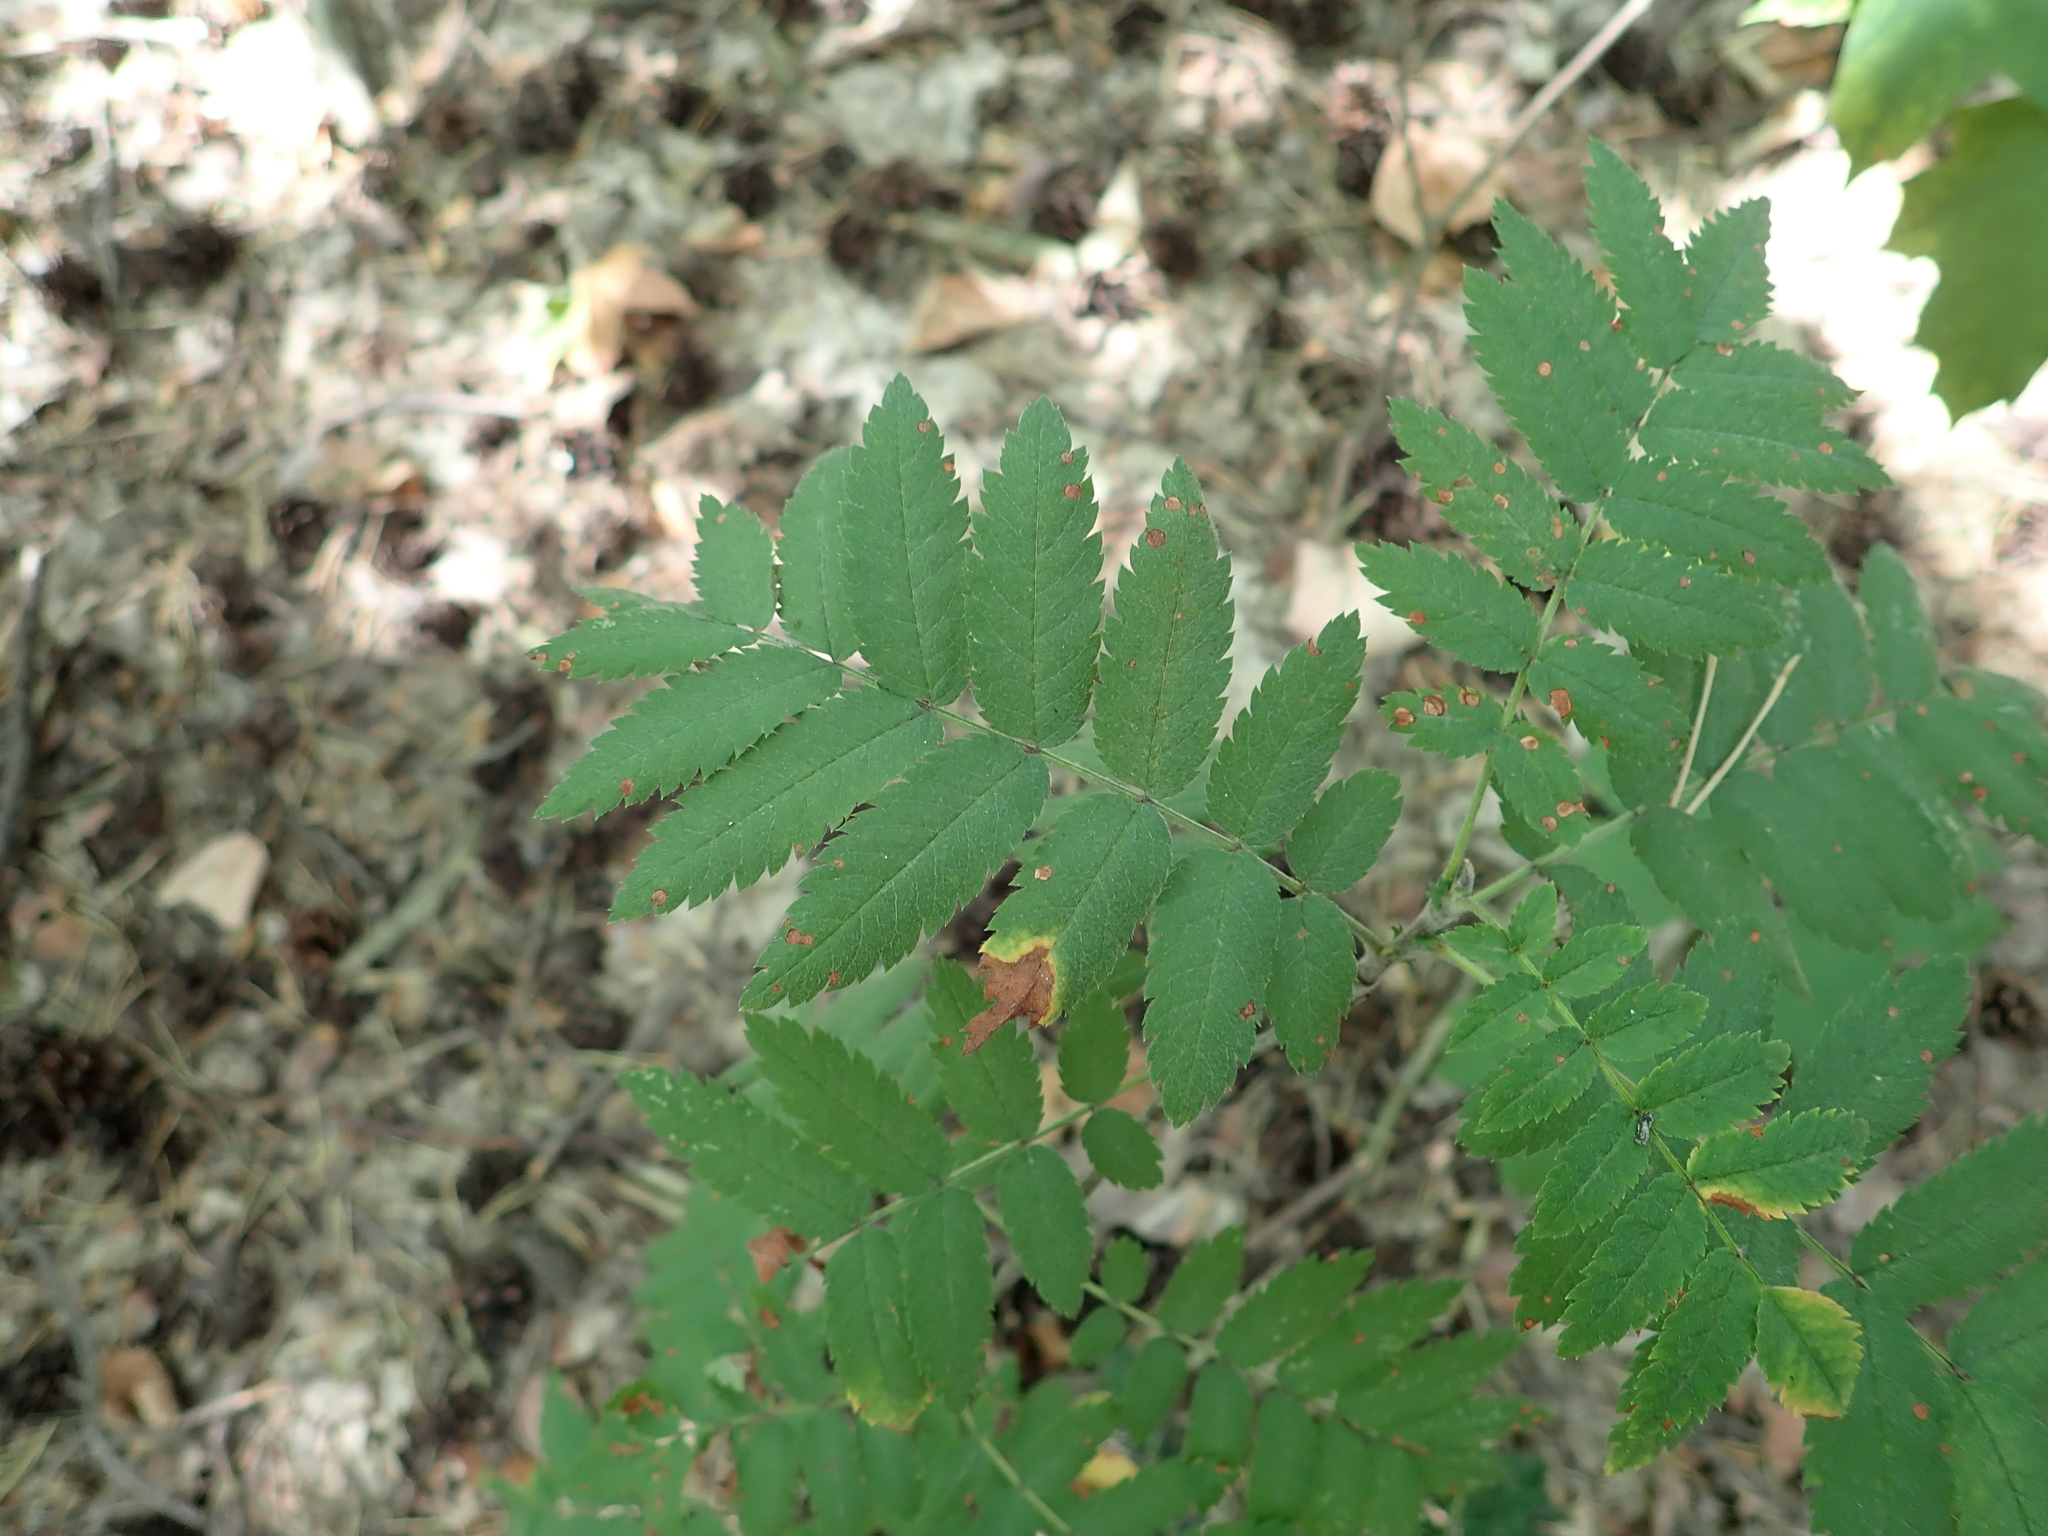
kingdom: Plantae
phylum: Tracheophyta
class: Magnoliopsida
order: Rosales
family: Rosaceae
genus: Sorbus
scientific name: Sorbus aucuparia
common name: Rowan
